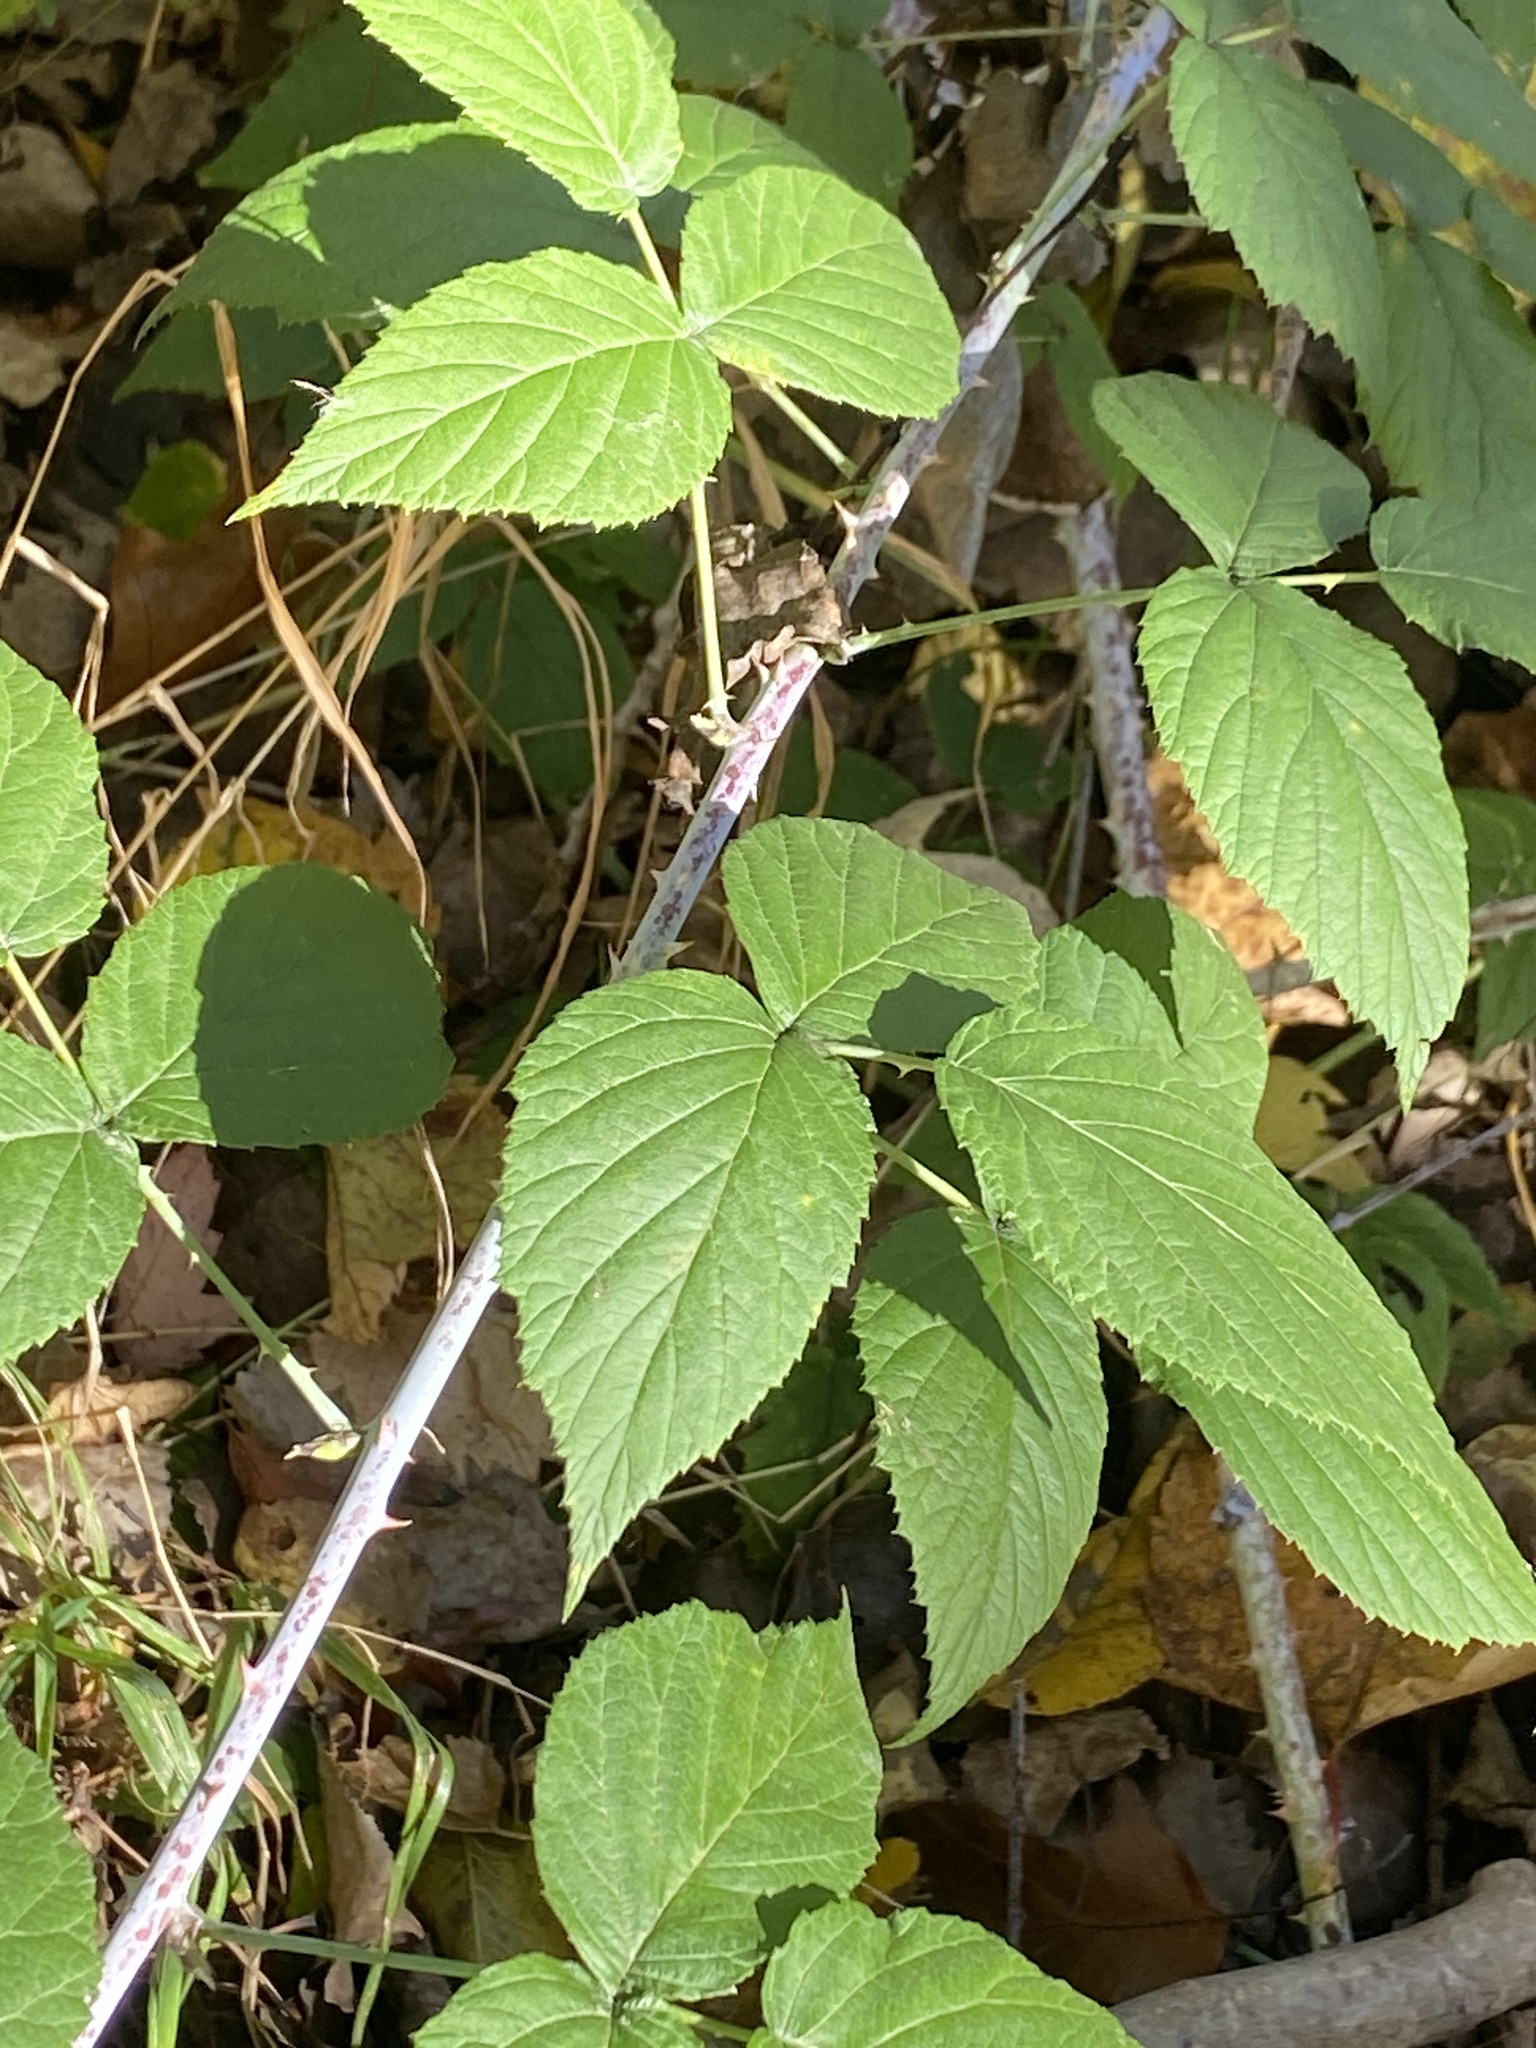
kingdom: Plantae
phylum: Tracheophyta
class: Magnoliopsida
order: Rosales
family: Rosaceae
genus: Rubus
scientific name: Rubus occidentalis
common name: Black raspberry
